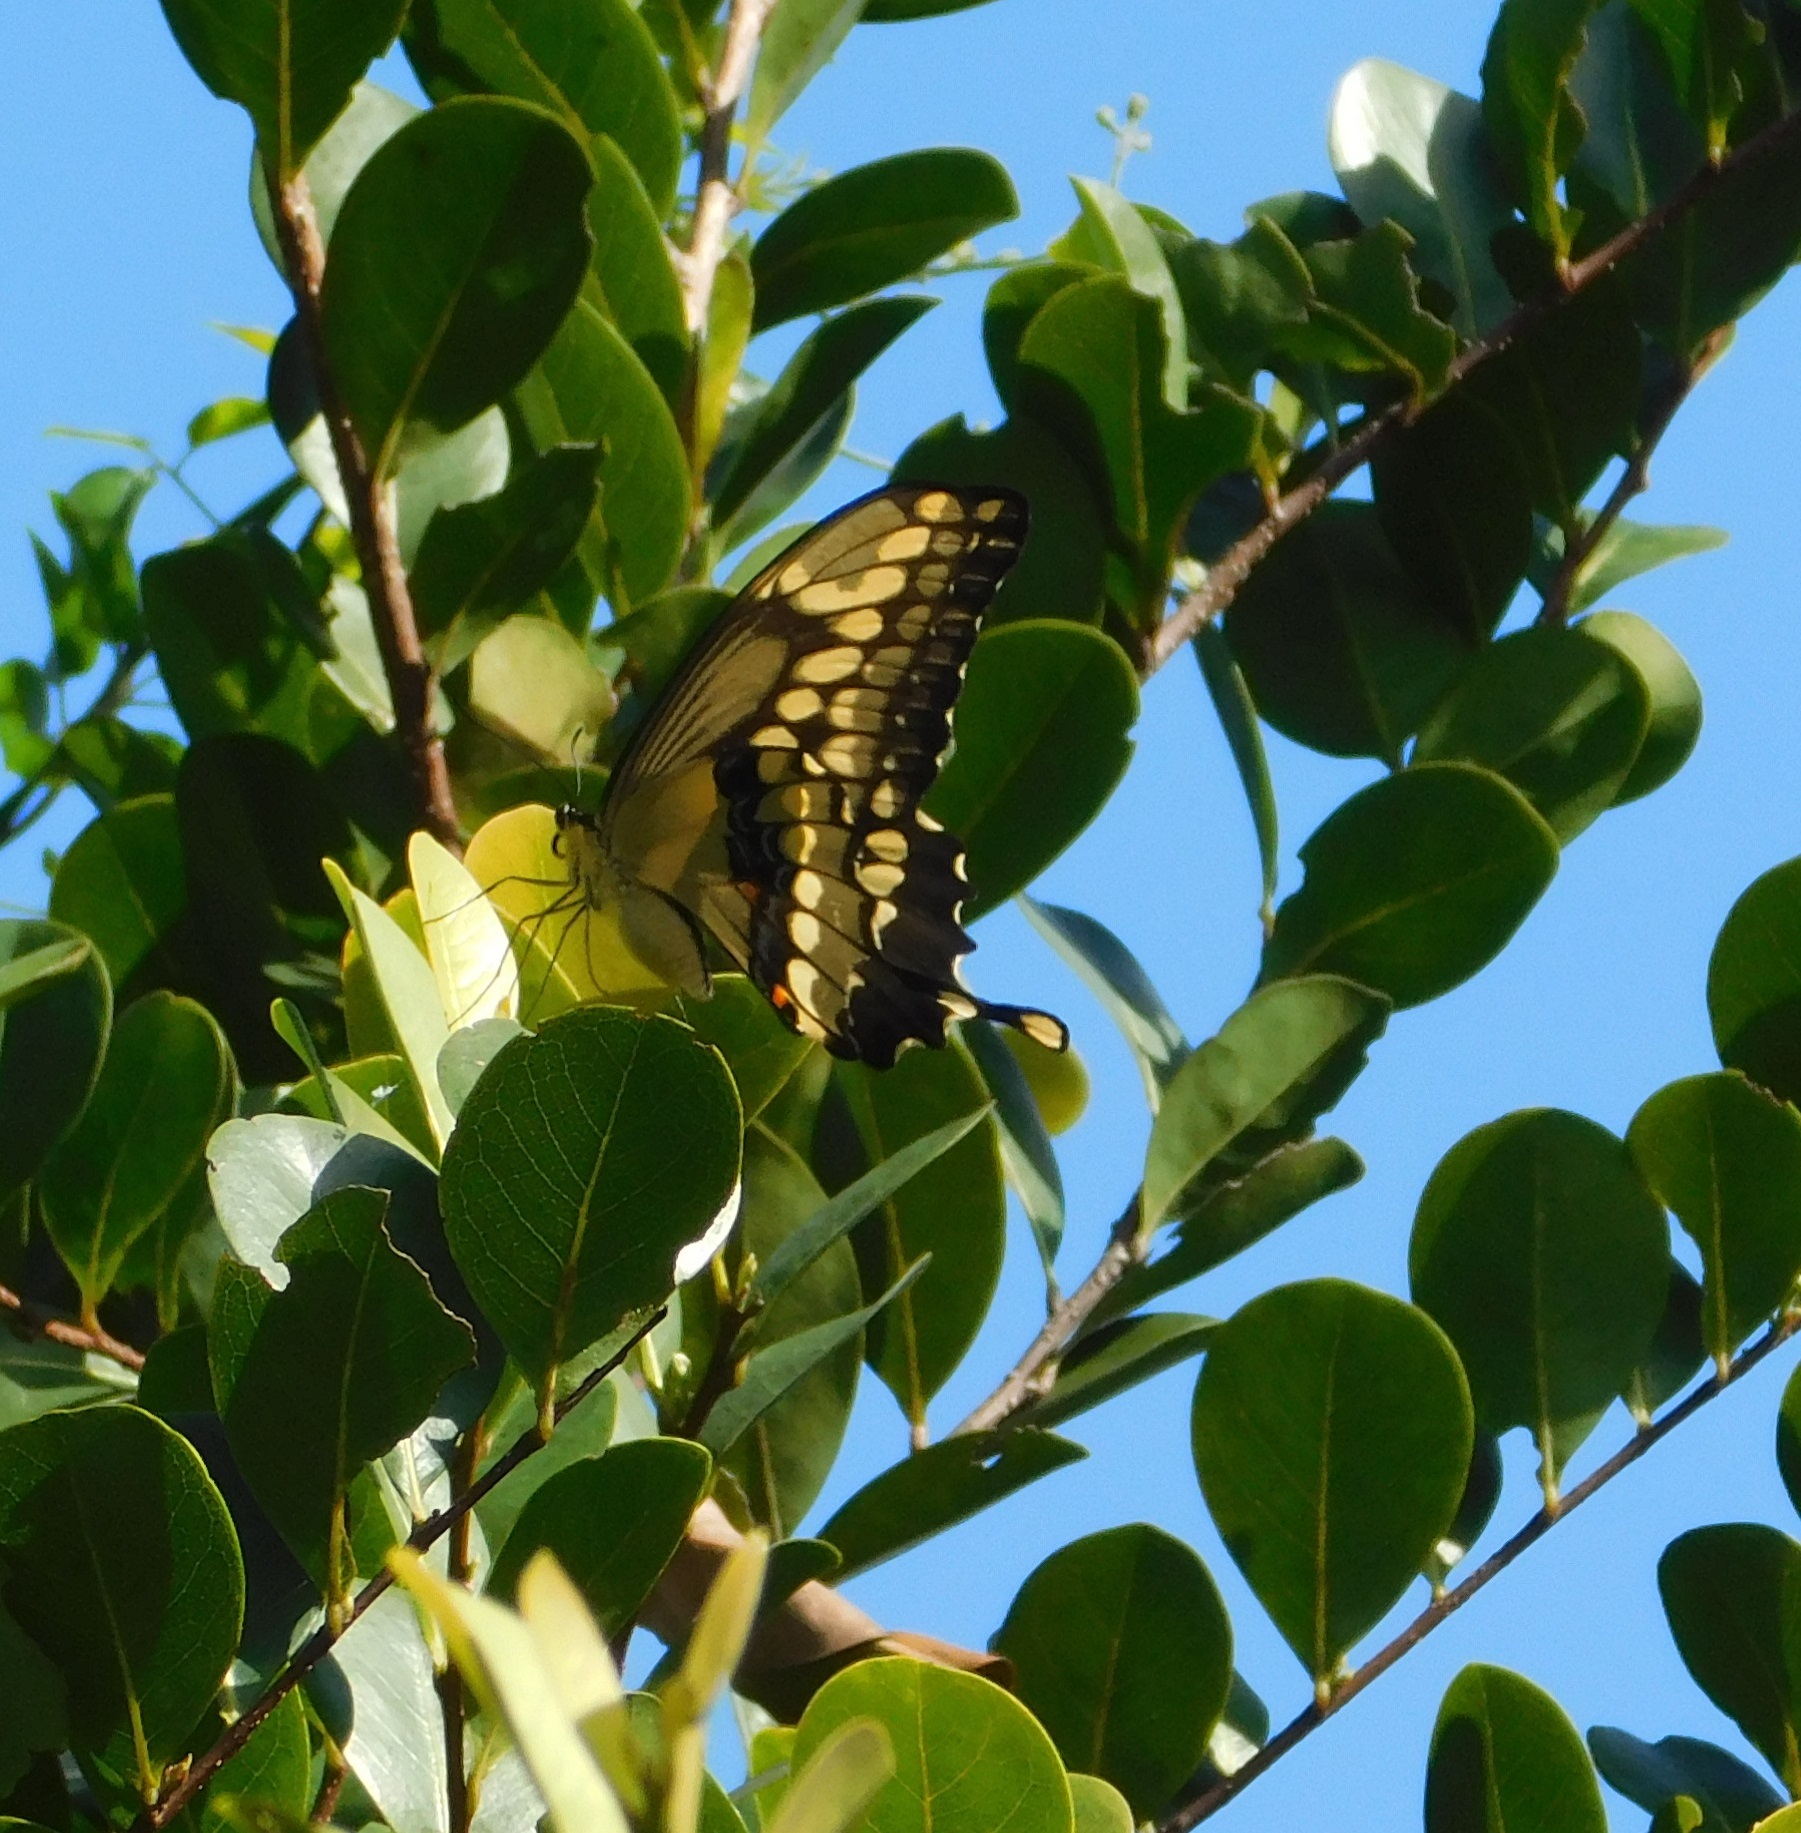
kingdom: Animalia
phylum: Arthropoda
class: Insecta
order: Lepidoptera
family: Papilionidae
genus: Papilio
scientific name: Papilio cresphontes
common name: Giant swallowtail
